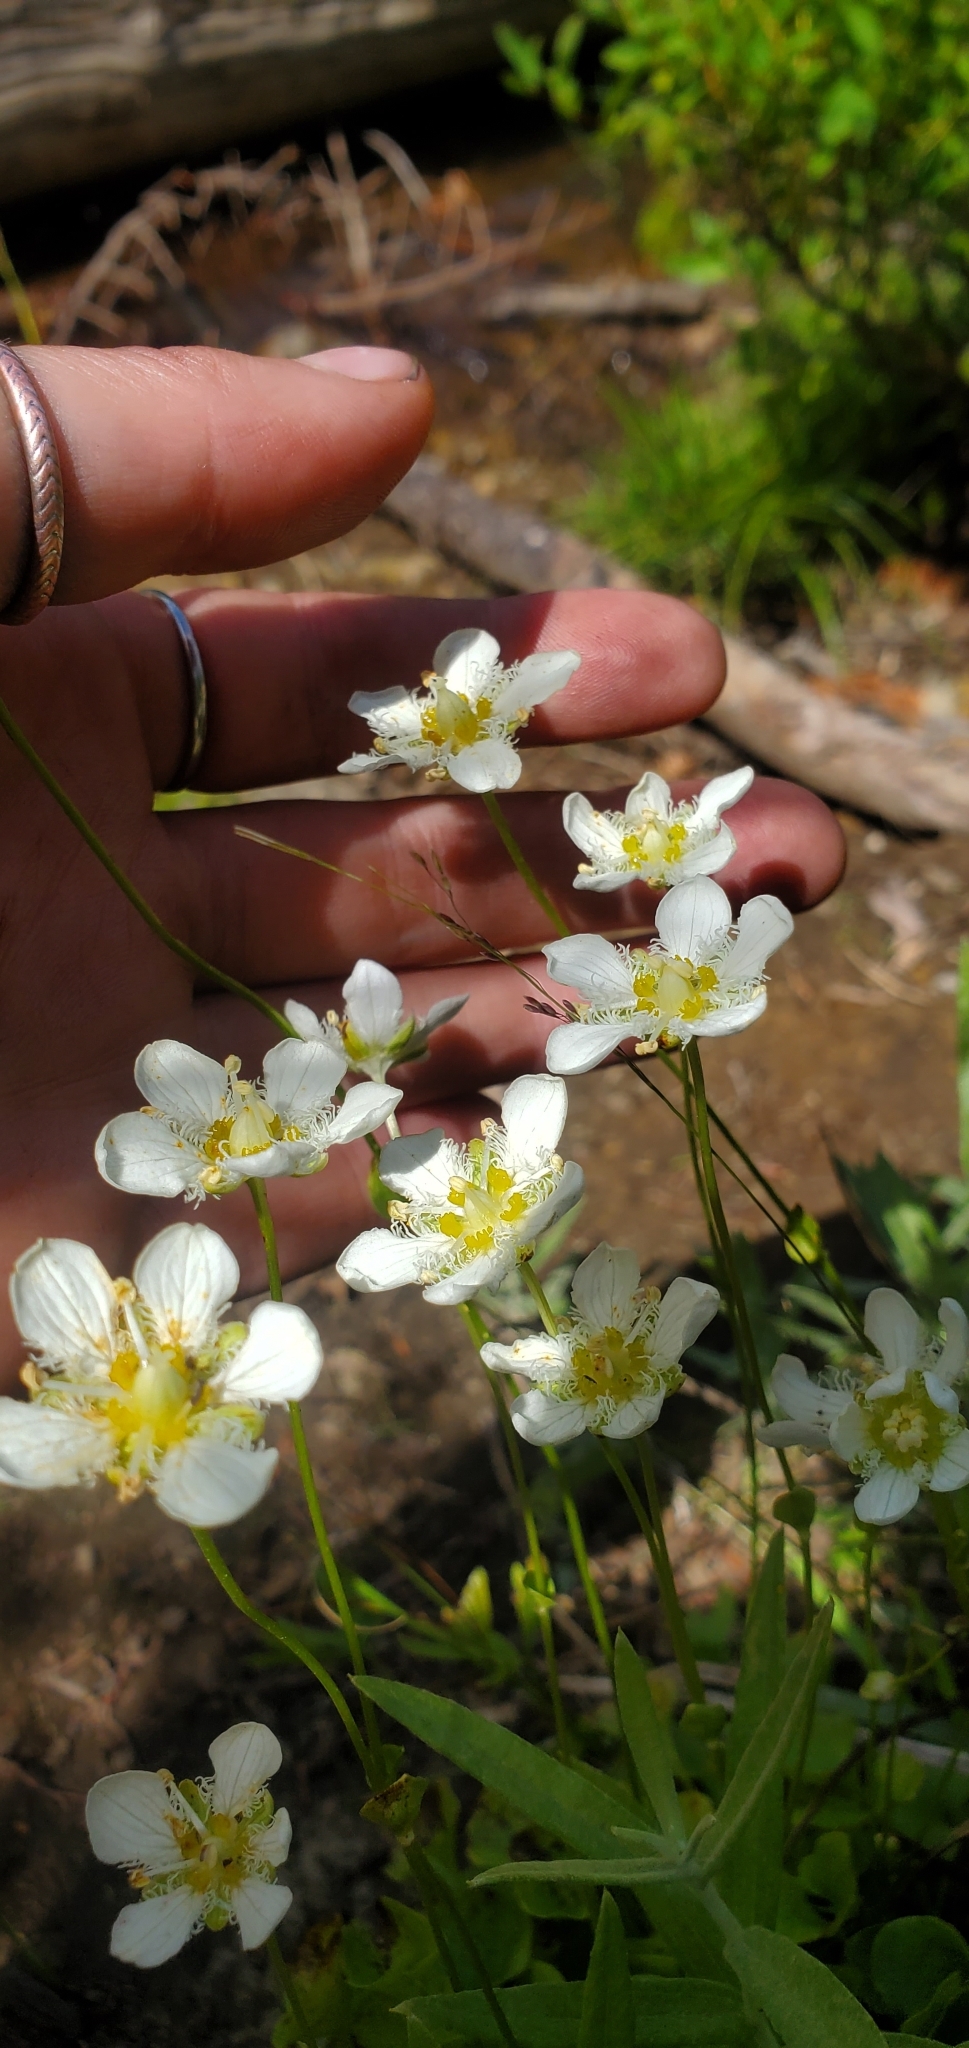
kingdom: Plantae
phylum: Tracheophyta
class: Magnoliopsida
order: Celastrales
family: Parnassiaceae
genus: Parnassia
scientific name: Parnassia fimbriata
